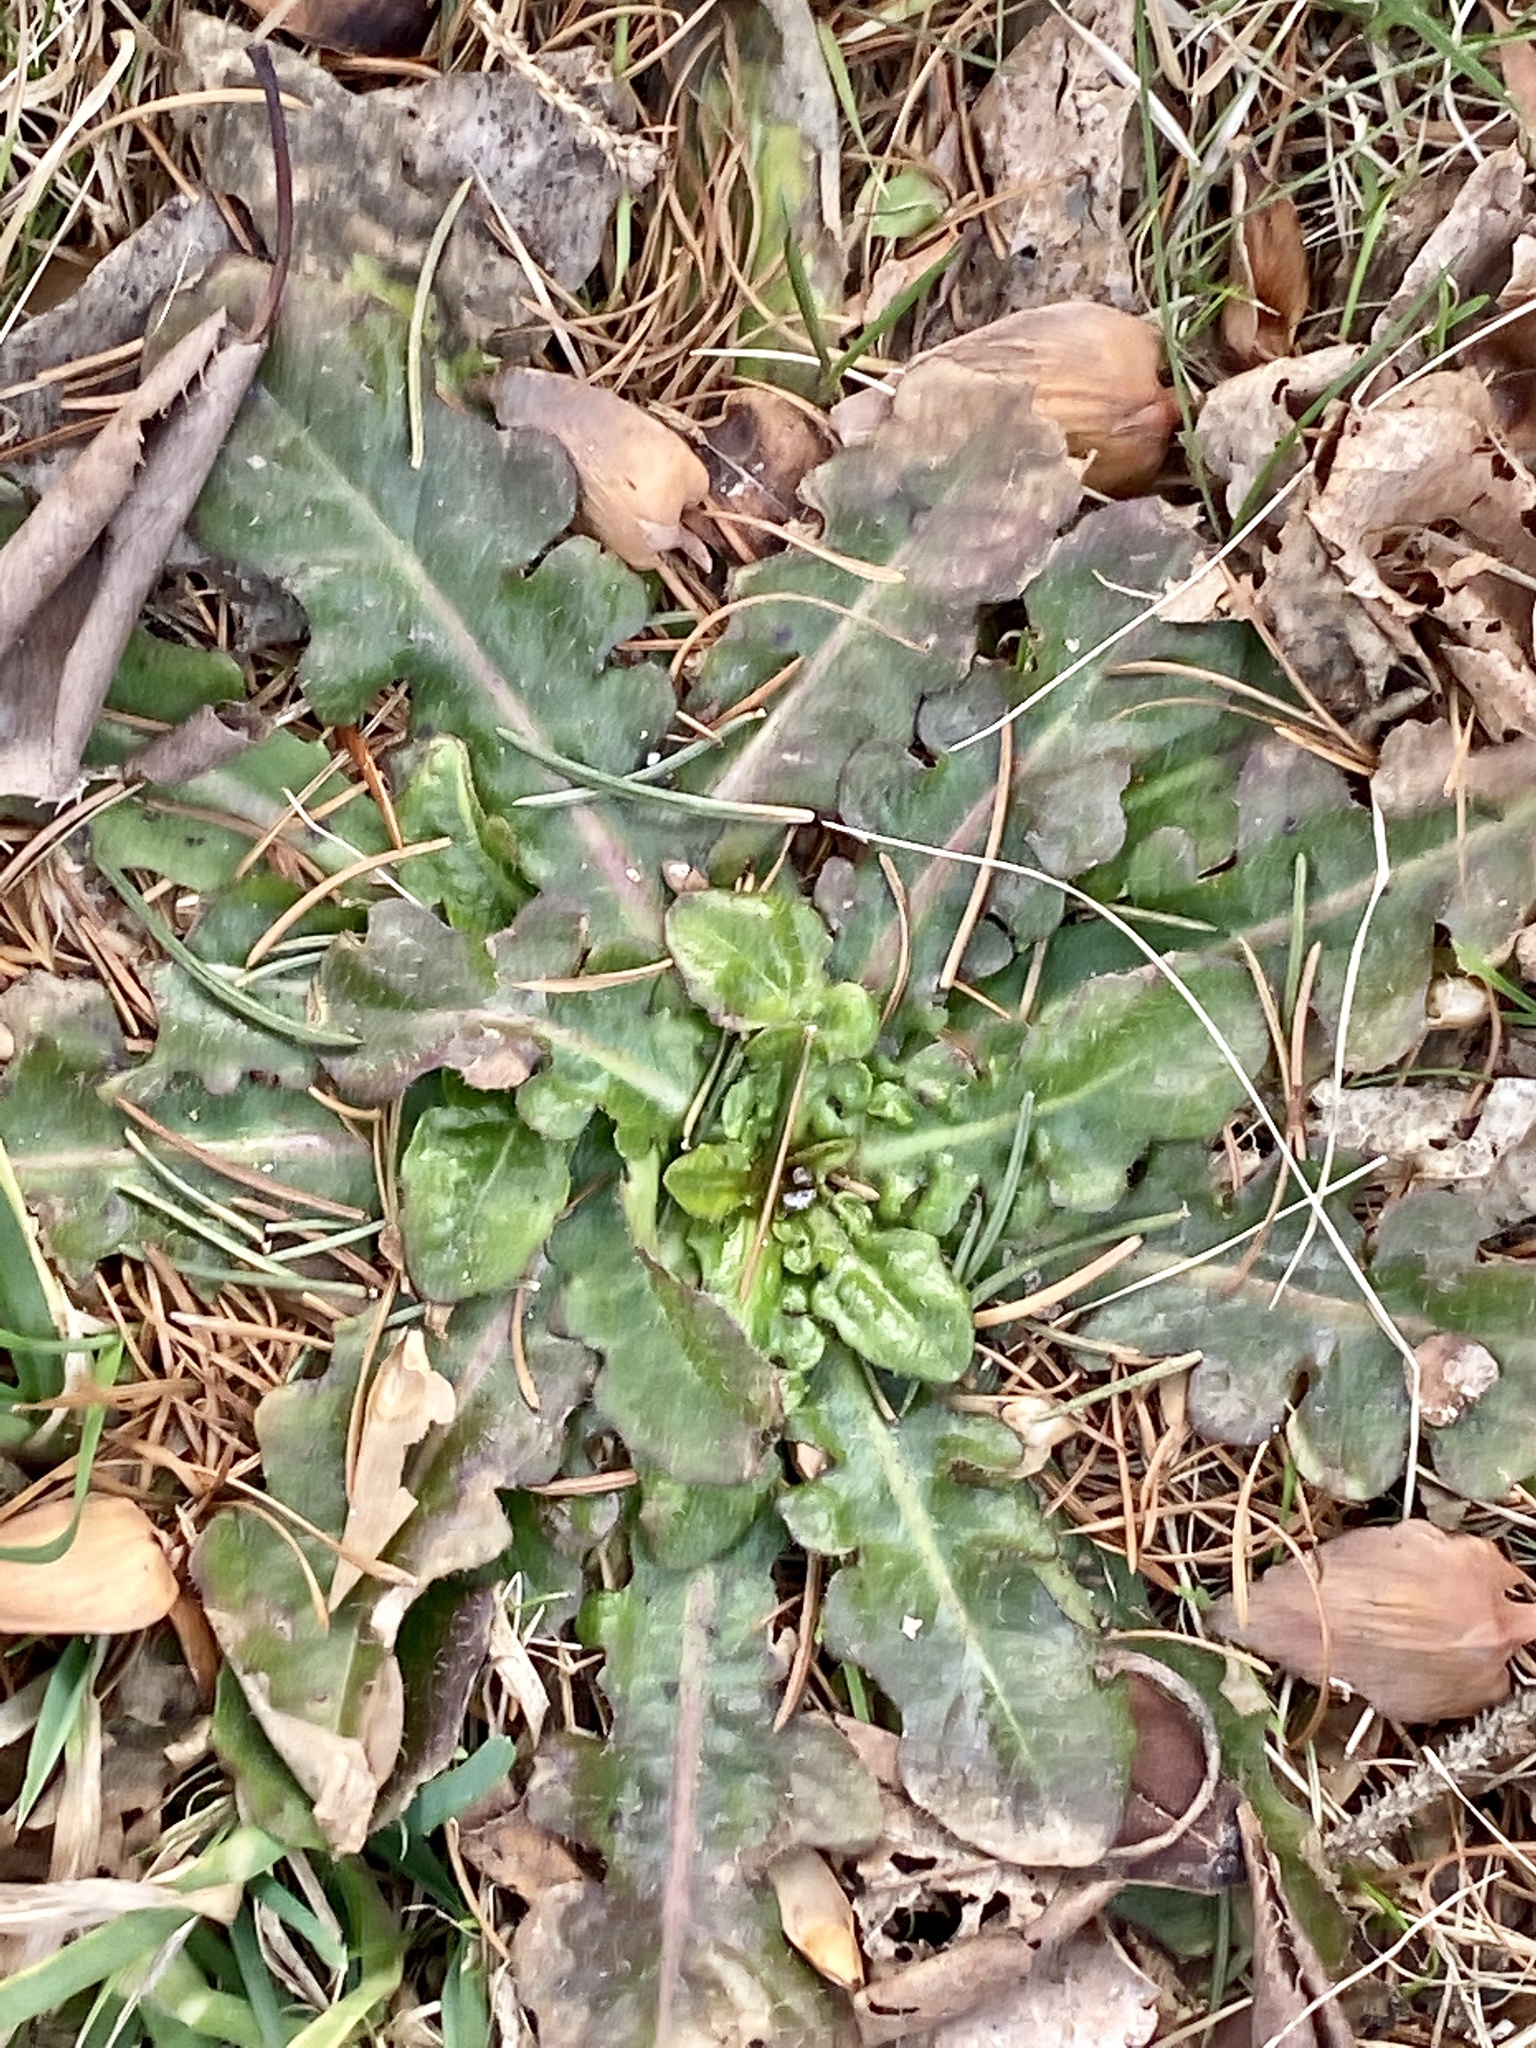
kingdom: Plantae
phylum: Tracheophyta
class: Magnoliopsida
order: Asterales
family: Asteraceae
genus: Hypochaeris
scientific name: Hypochaeris radicata
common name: Flatweed
